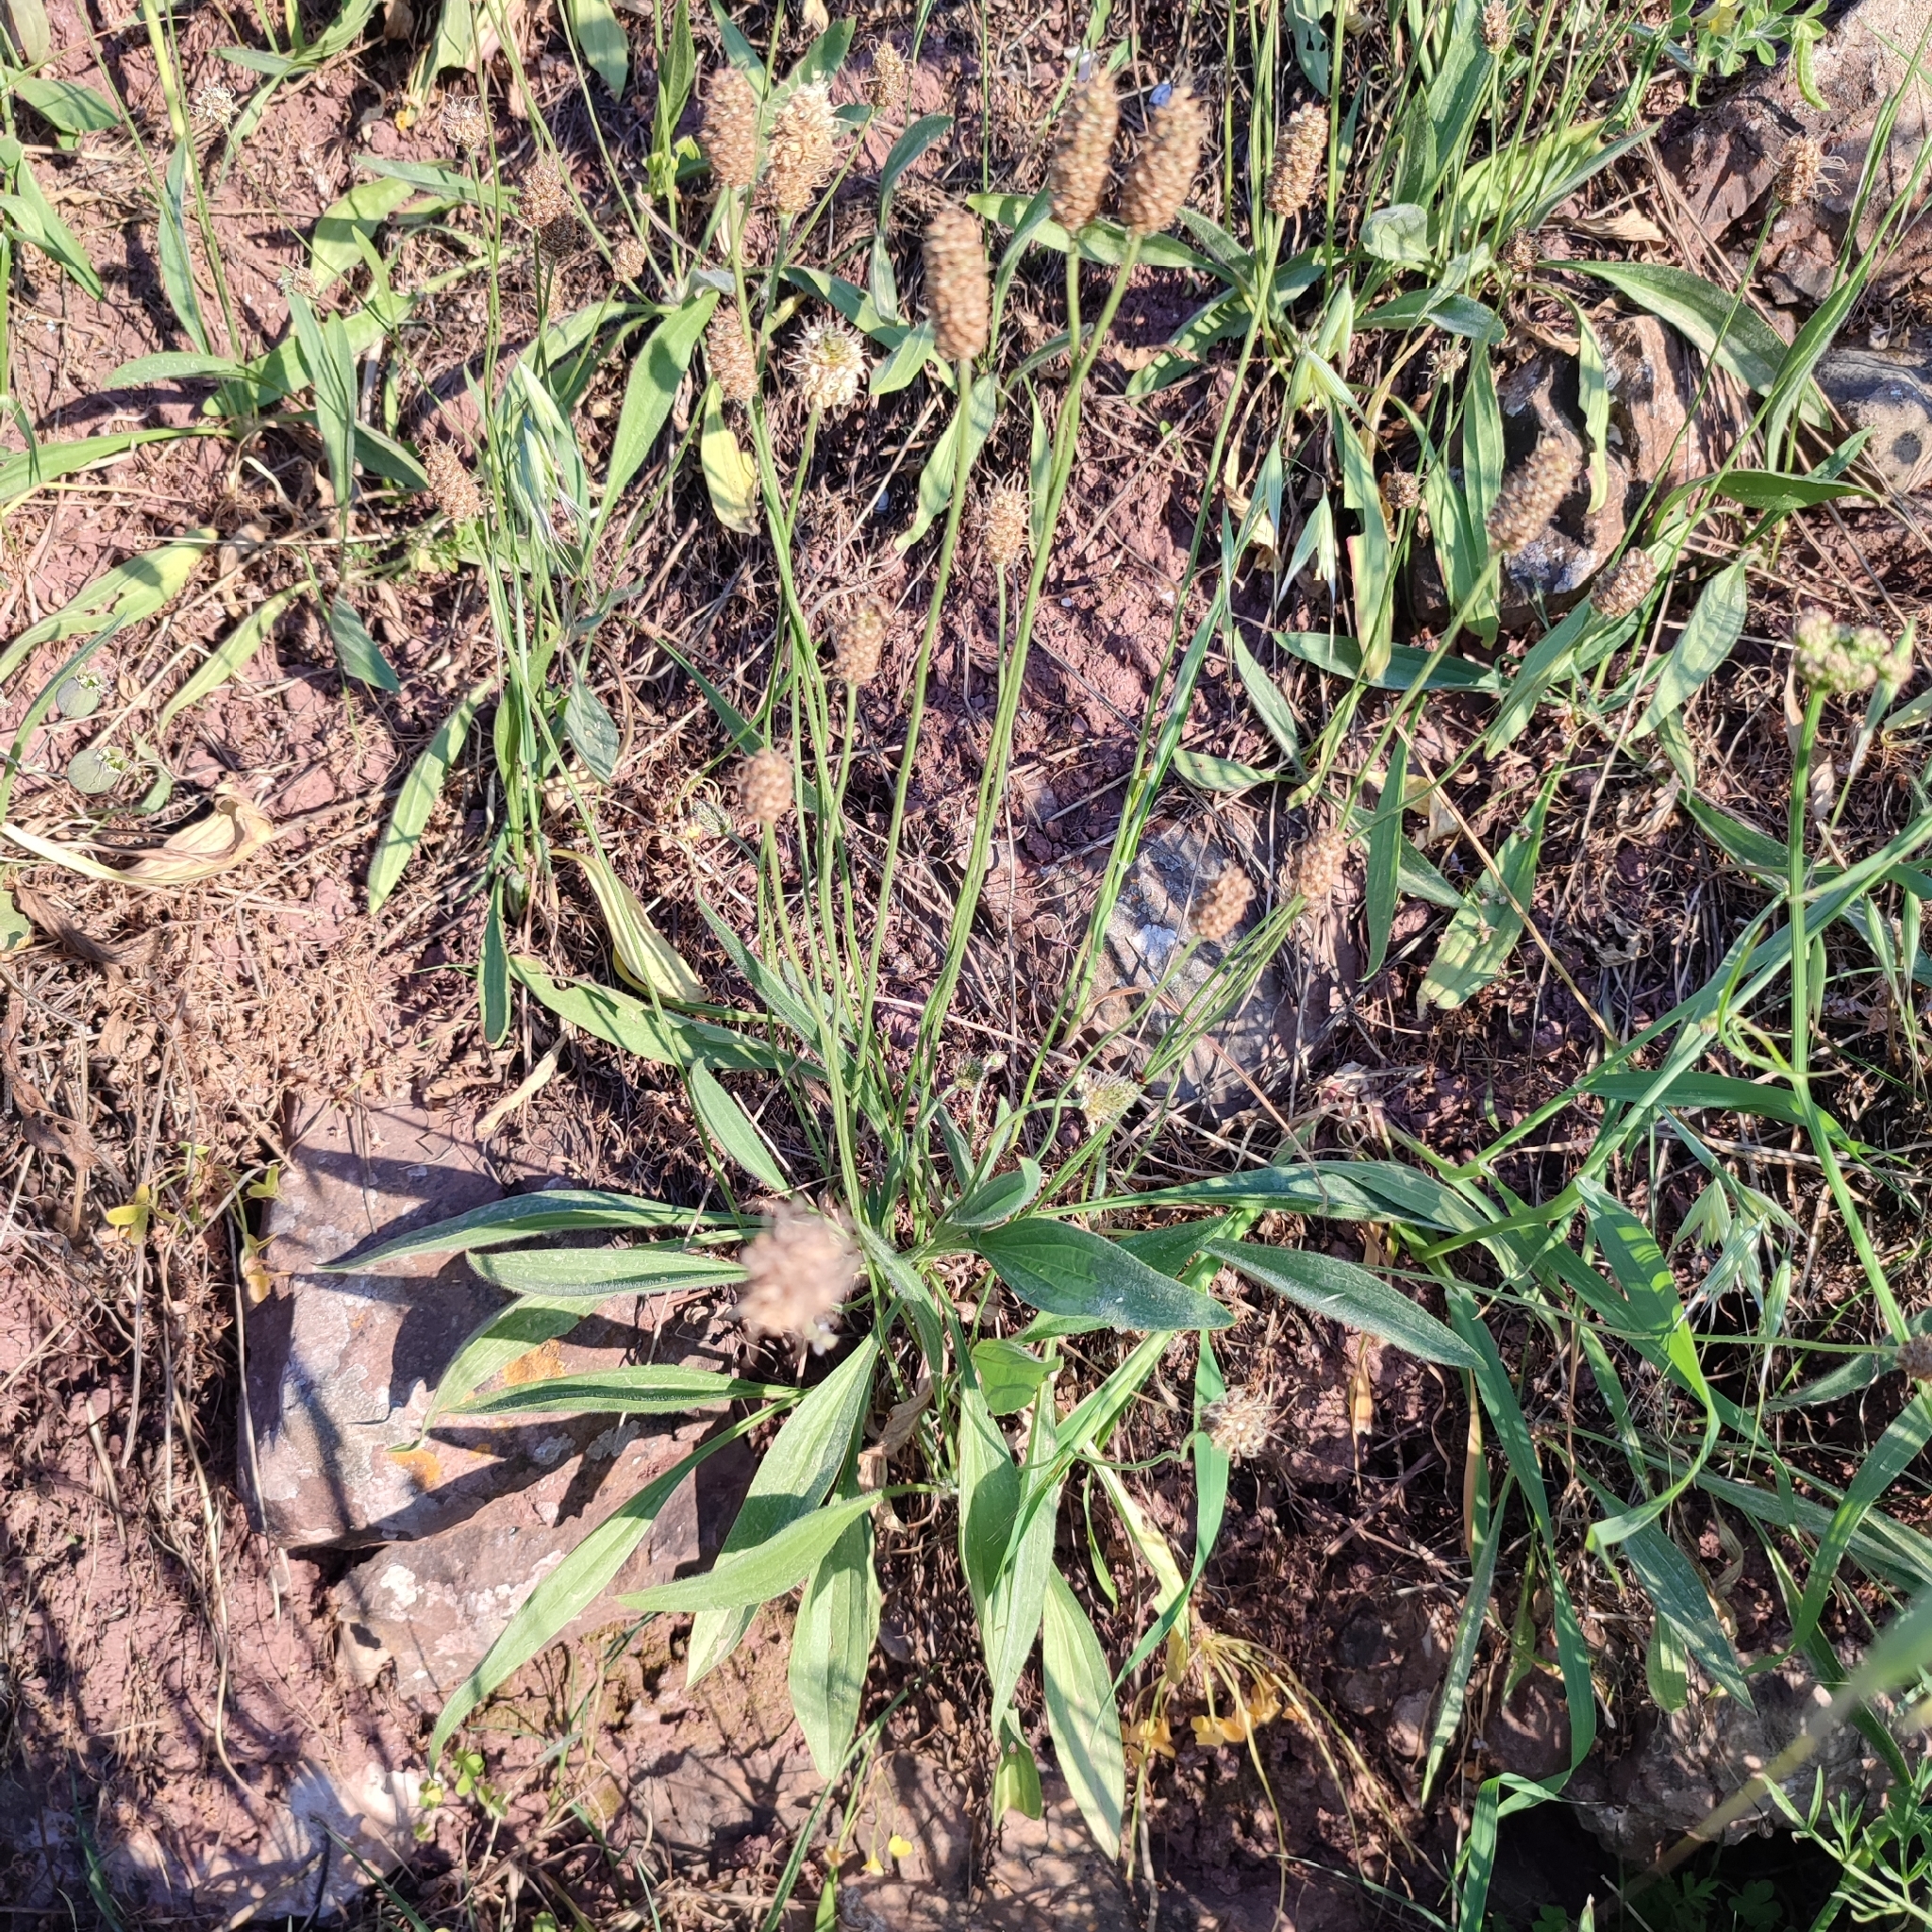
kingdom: Plantae
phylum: Tracheophyta
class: Magnoliopsida
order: Lamiales
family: Plantaginaceae
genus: Plantago
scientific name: Plantago lanceolata
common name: Ribwort plantain
